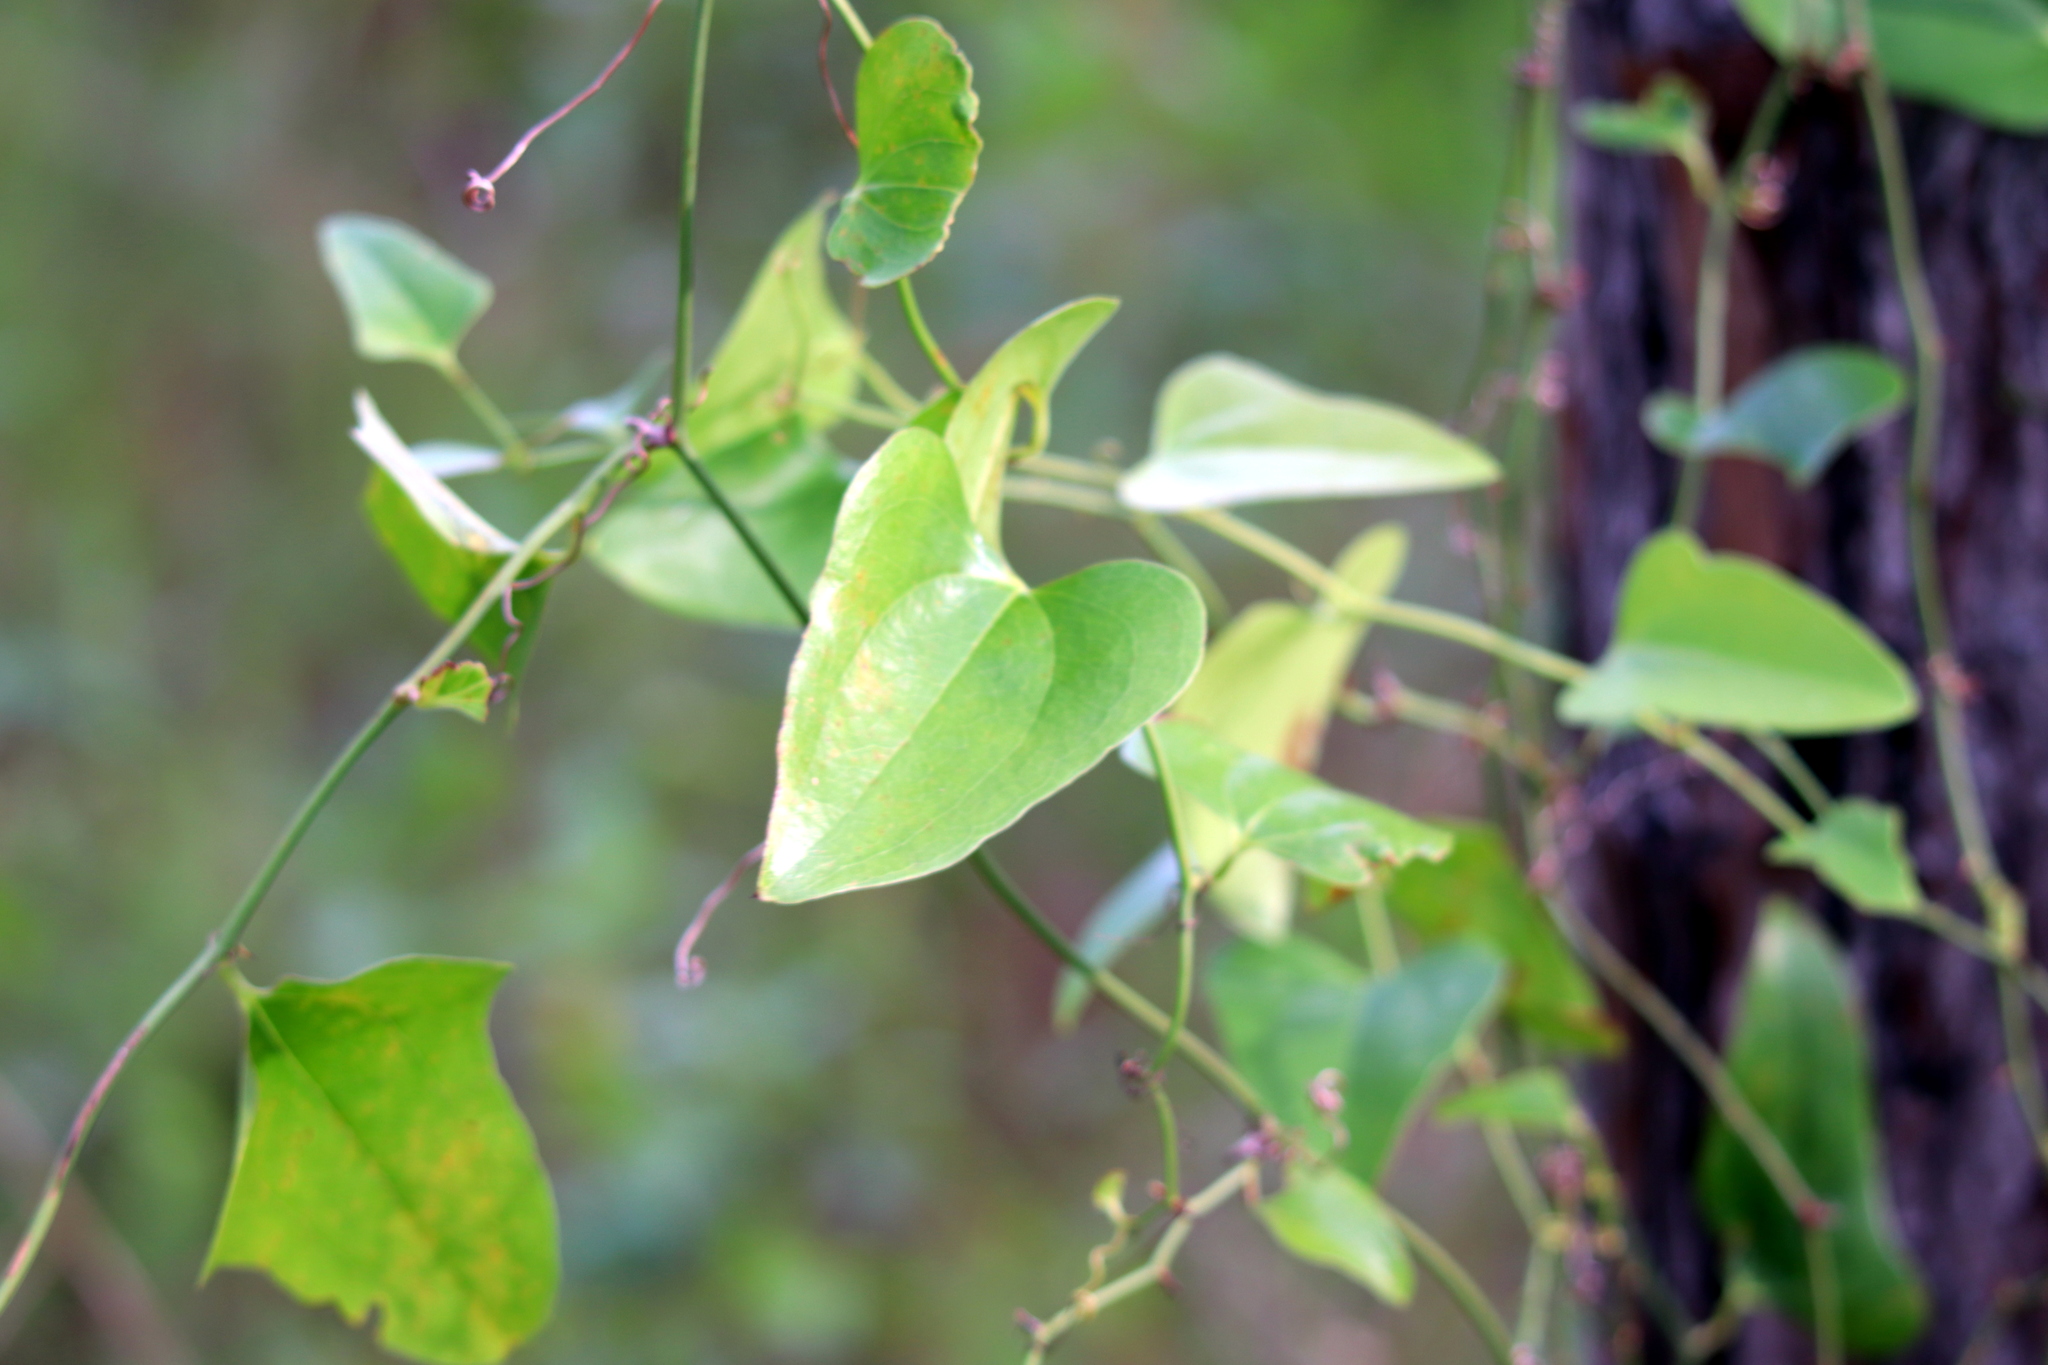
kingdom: Plantae
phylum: Tracheophyta
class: Liliopsida
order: Liliales
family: Smilacaceae
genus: Smilax
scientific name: Smilax bona-nox
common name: Catbrier
